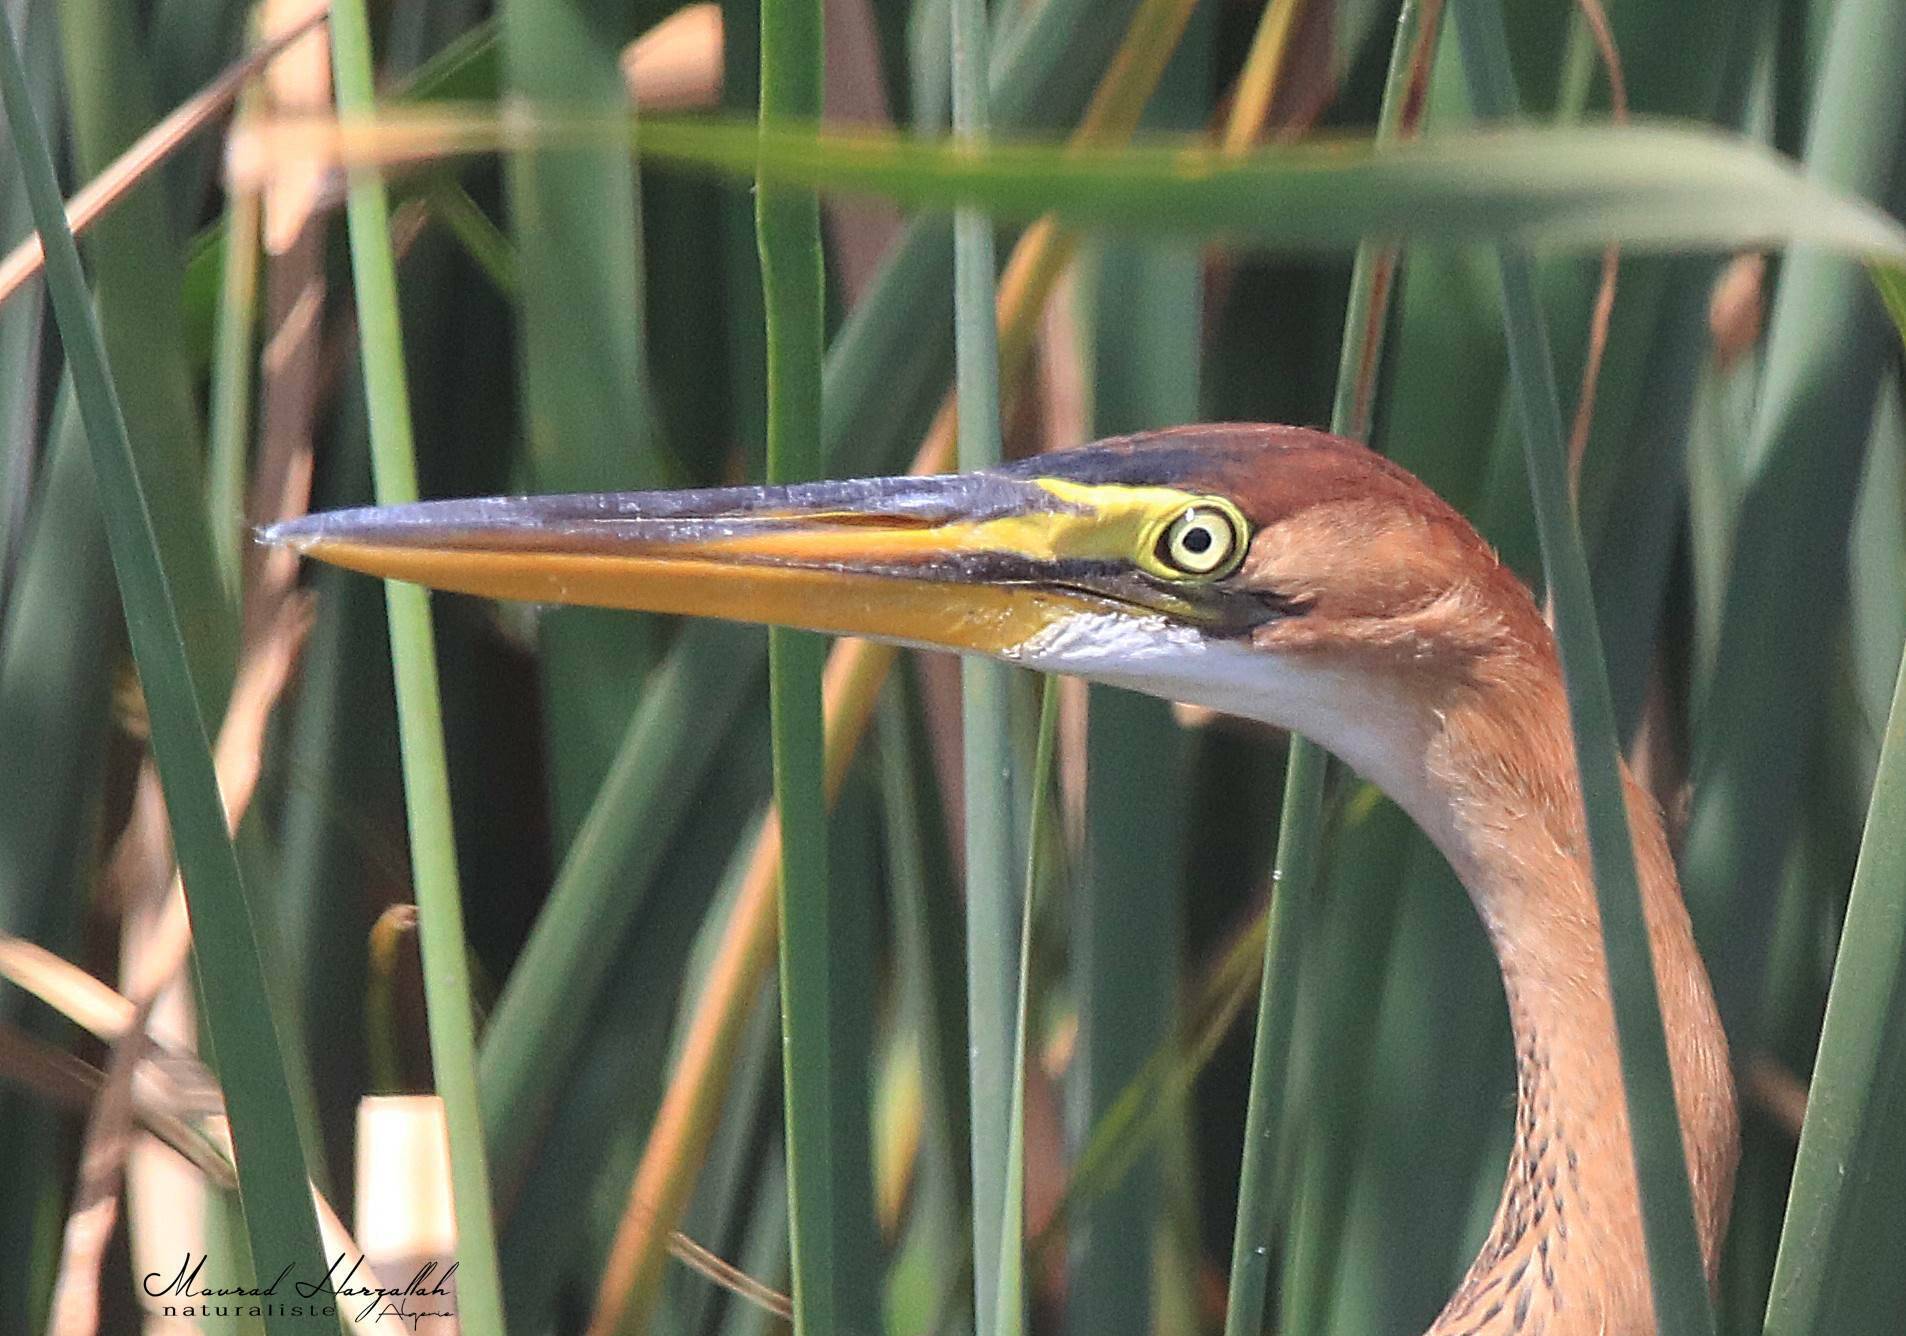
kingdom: Animalia
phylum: Chordata
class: Aves
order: Pelecaniformes
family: Ardeidae
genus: Ardea
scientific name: Ardea purpurea
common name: Purple heron
